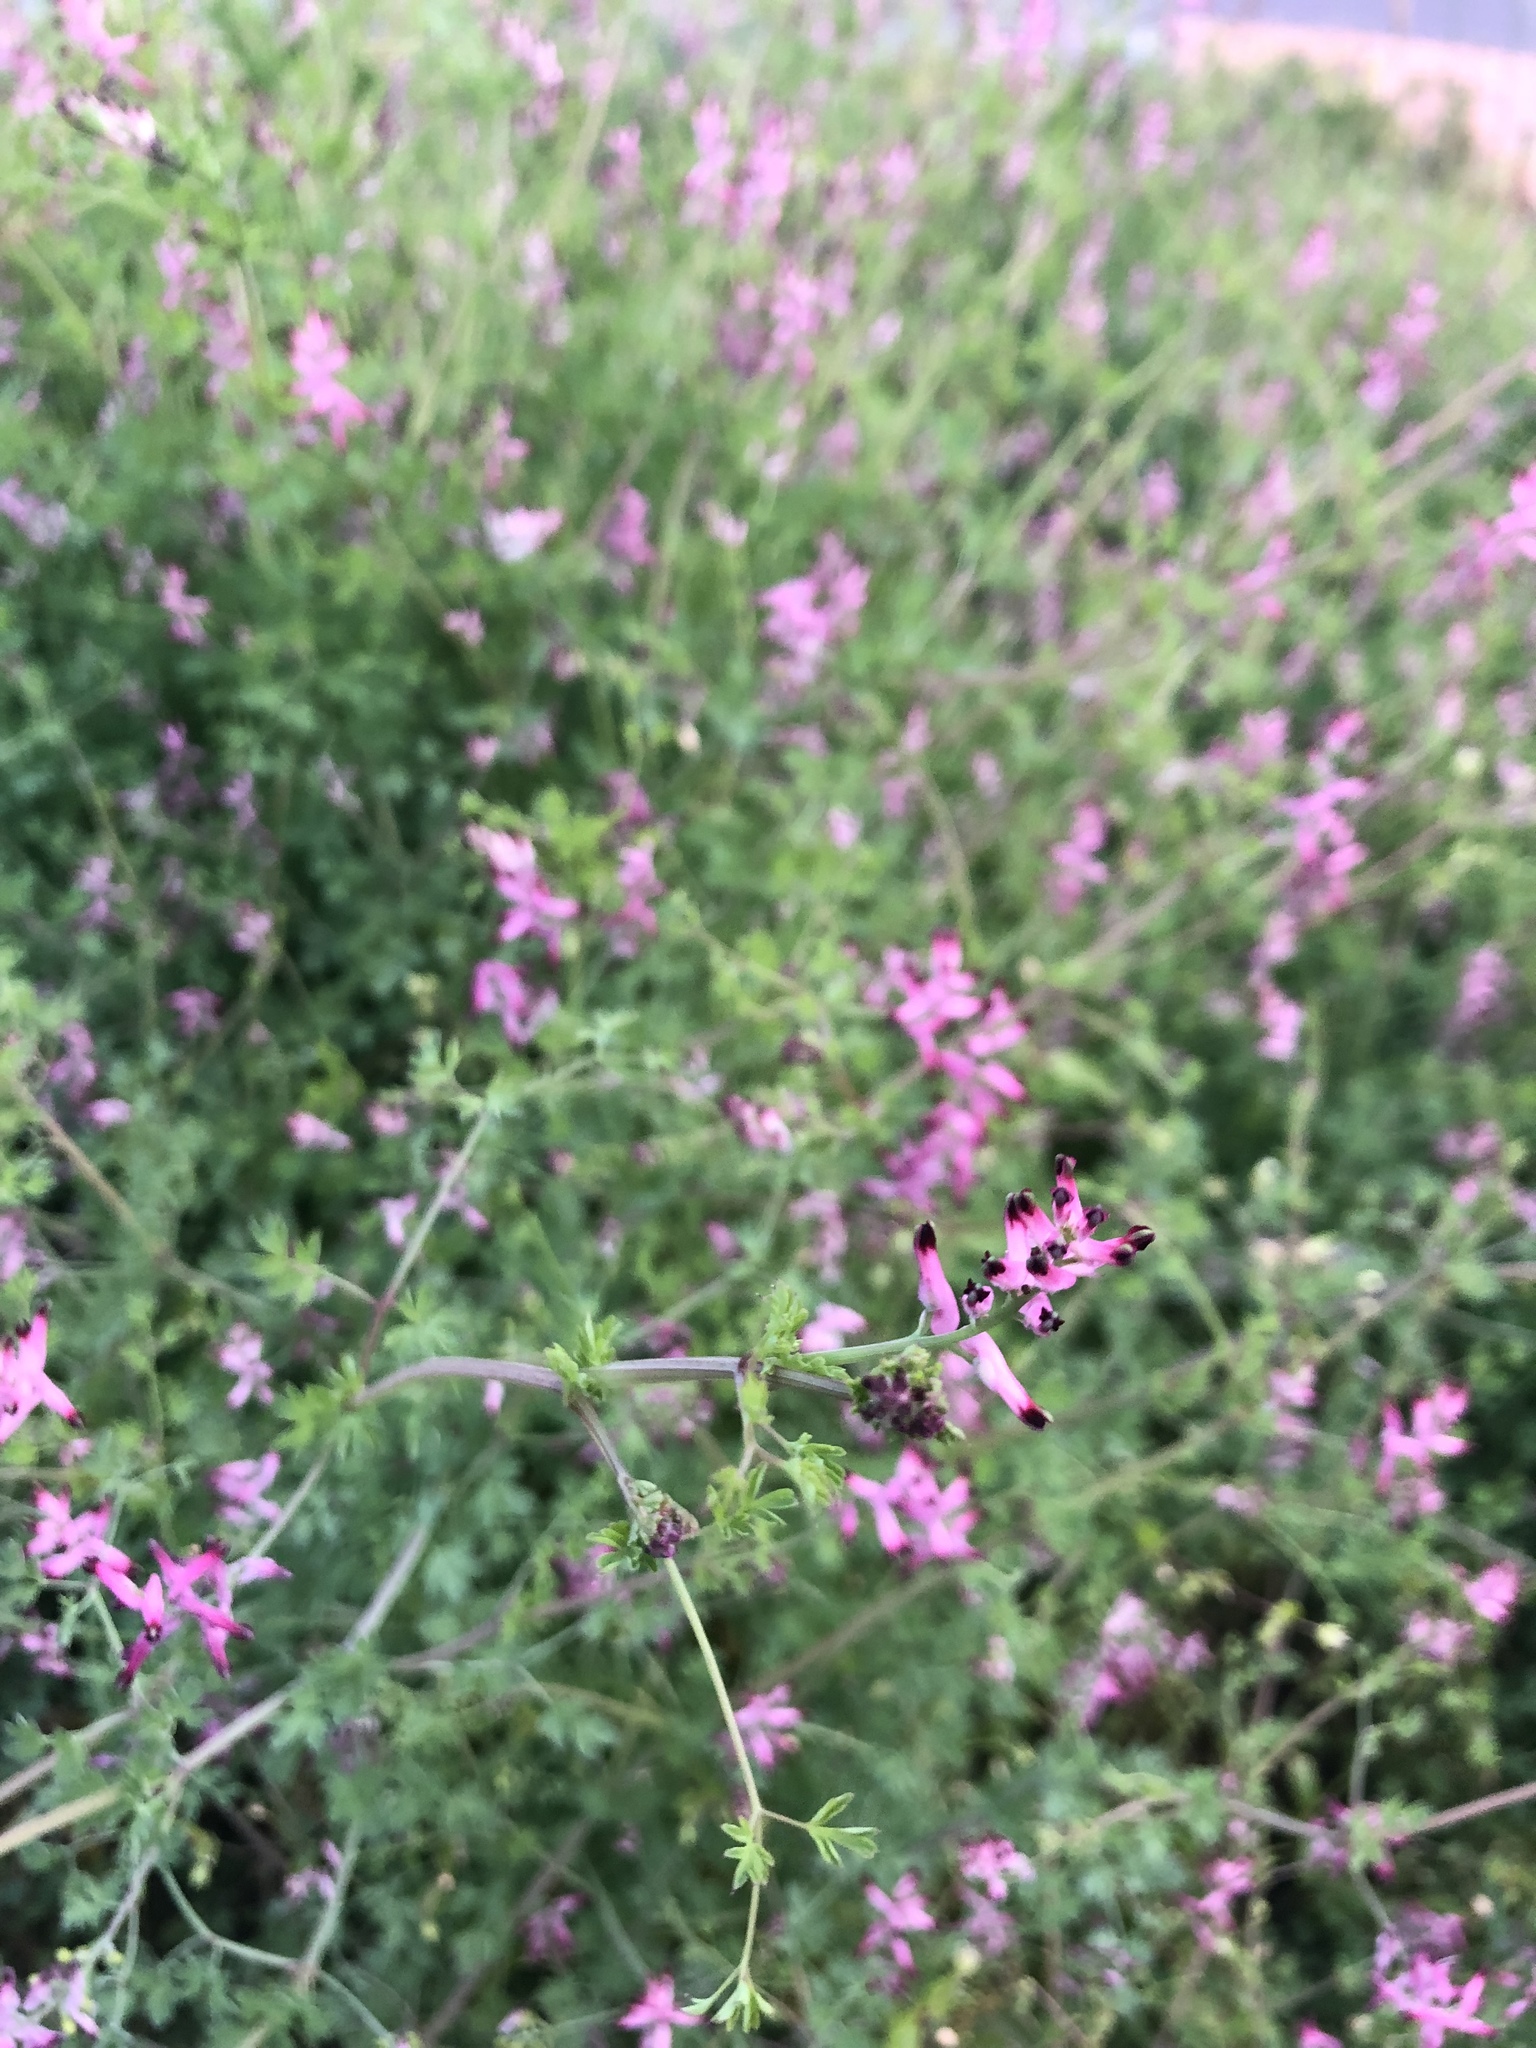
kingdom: Plantae
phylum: Tracheophyta
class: Magnoliopsida
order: Ranunculales
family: Papaveraceae
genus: Fumaria
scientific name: Fumaria muralis
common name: Common ramping-fumitory
